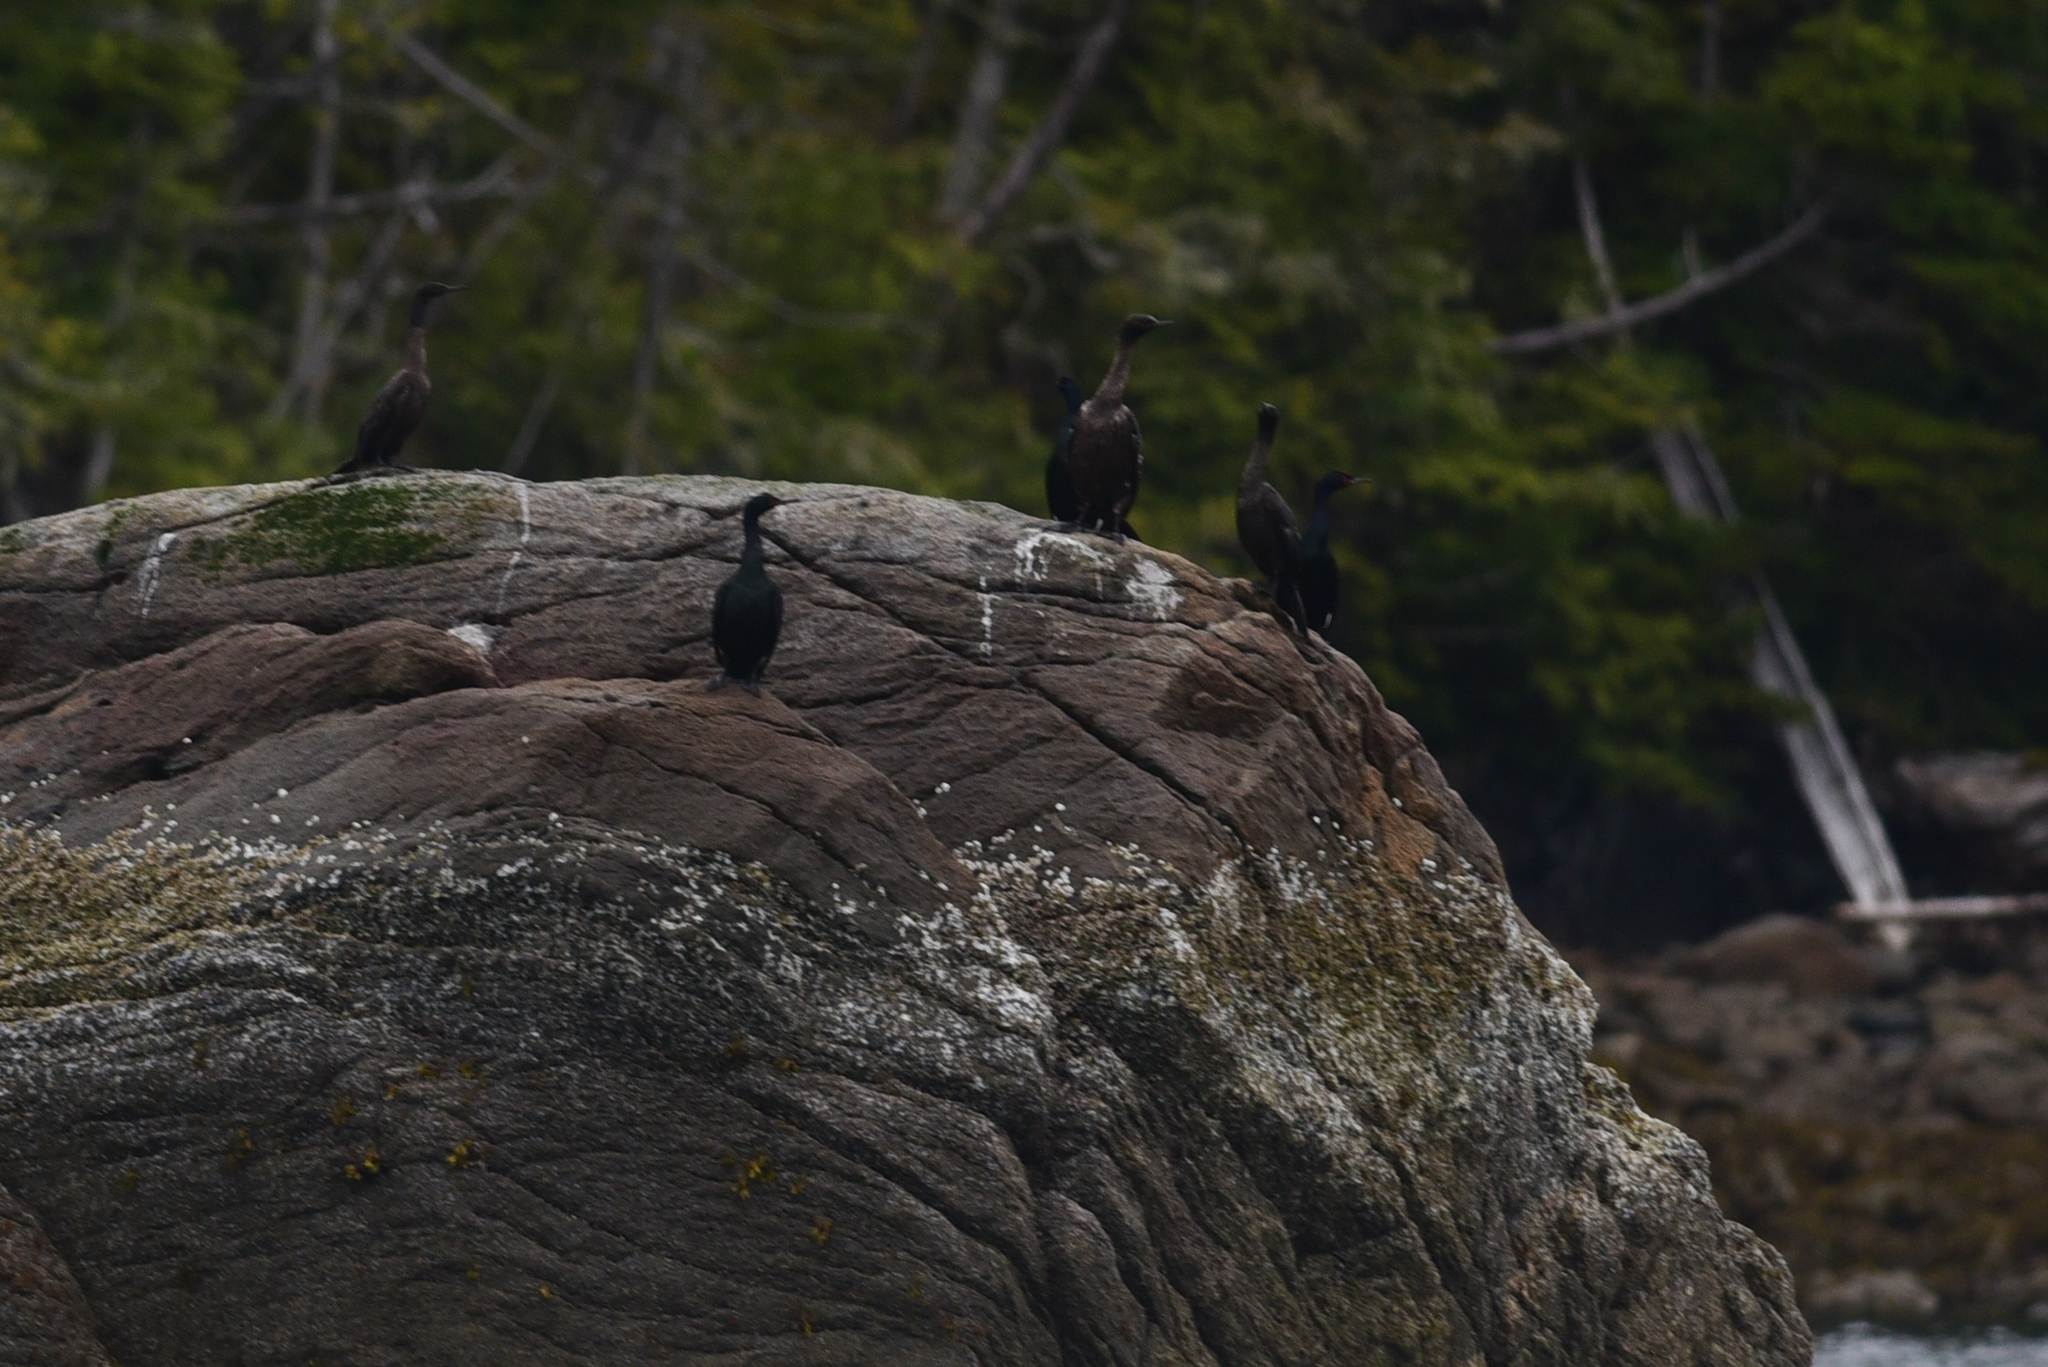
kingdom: Animalia
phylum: Chordata
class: Aves
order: Suliformes
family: Phalacrocoracidae
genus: Phalacrocorax
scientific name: Phalacrocorax pelagicus
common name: Pelagic cormorant
